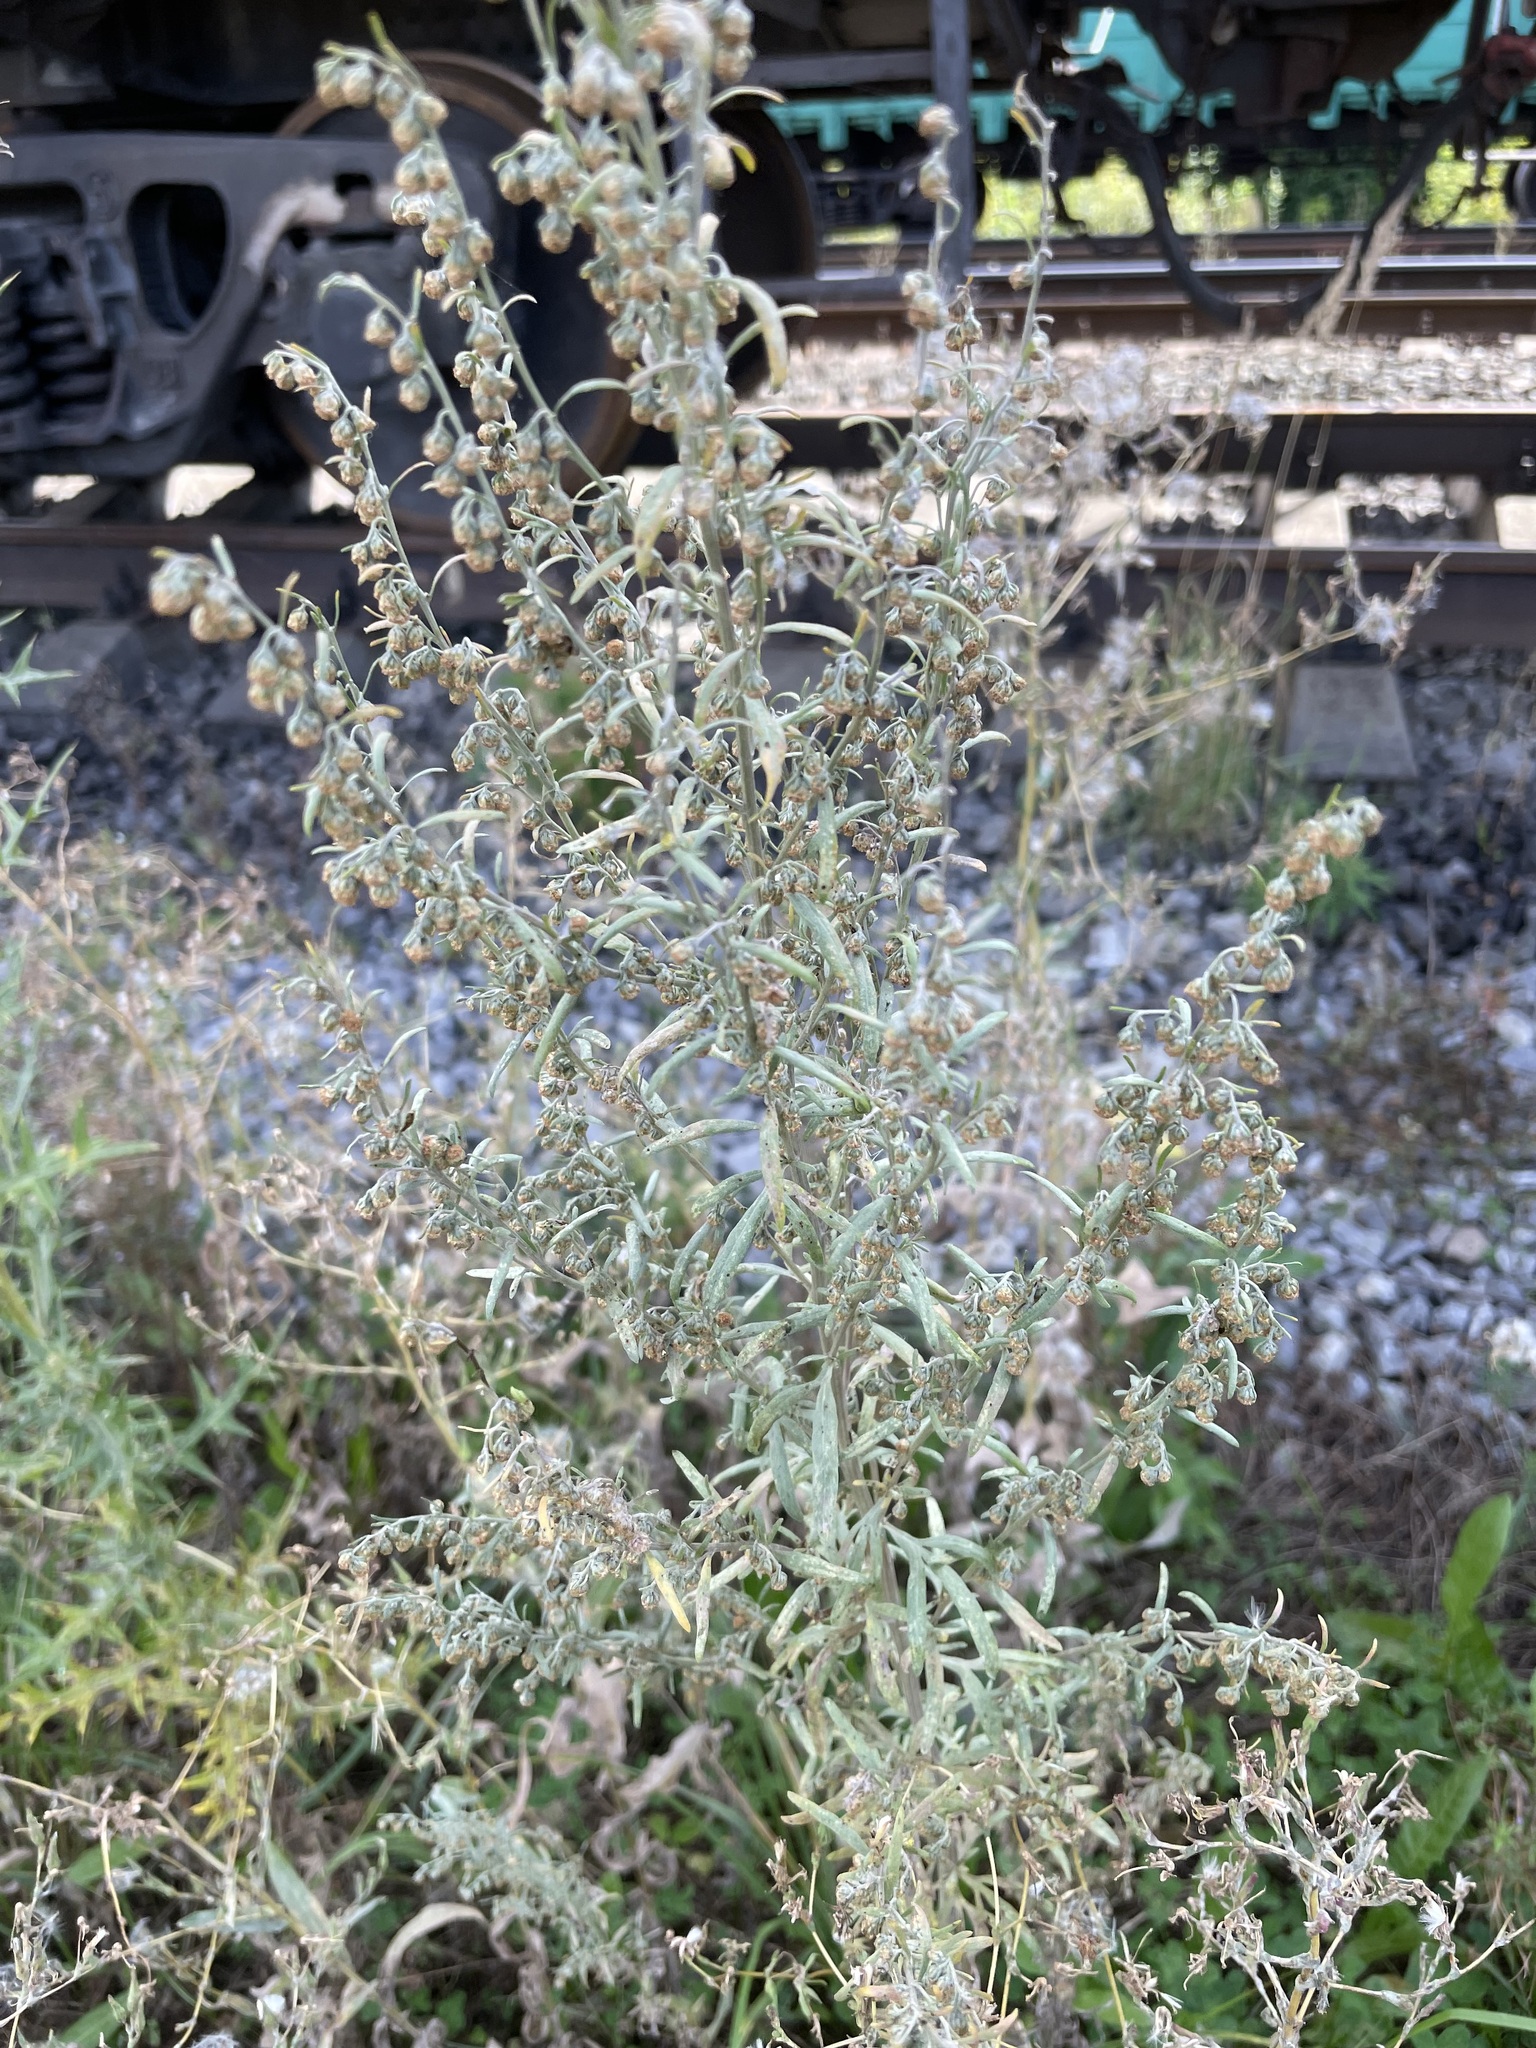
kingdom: Plantae
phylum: Tracheophyta
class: Magnoliopsida
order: Asterales
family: Asteraceae
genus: Artemisia
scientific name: Artemisia sieversiana
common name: Sieversian wormwood
